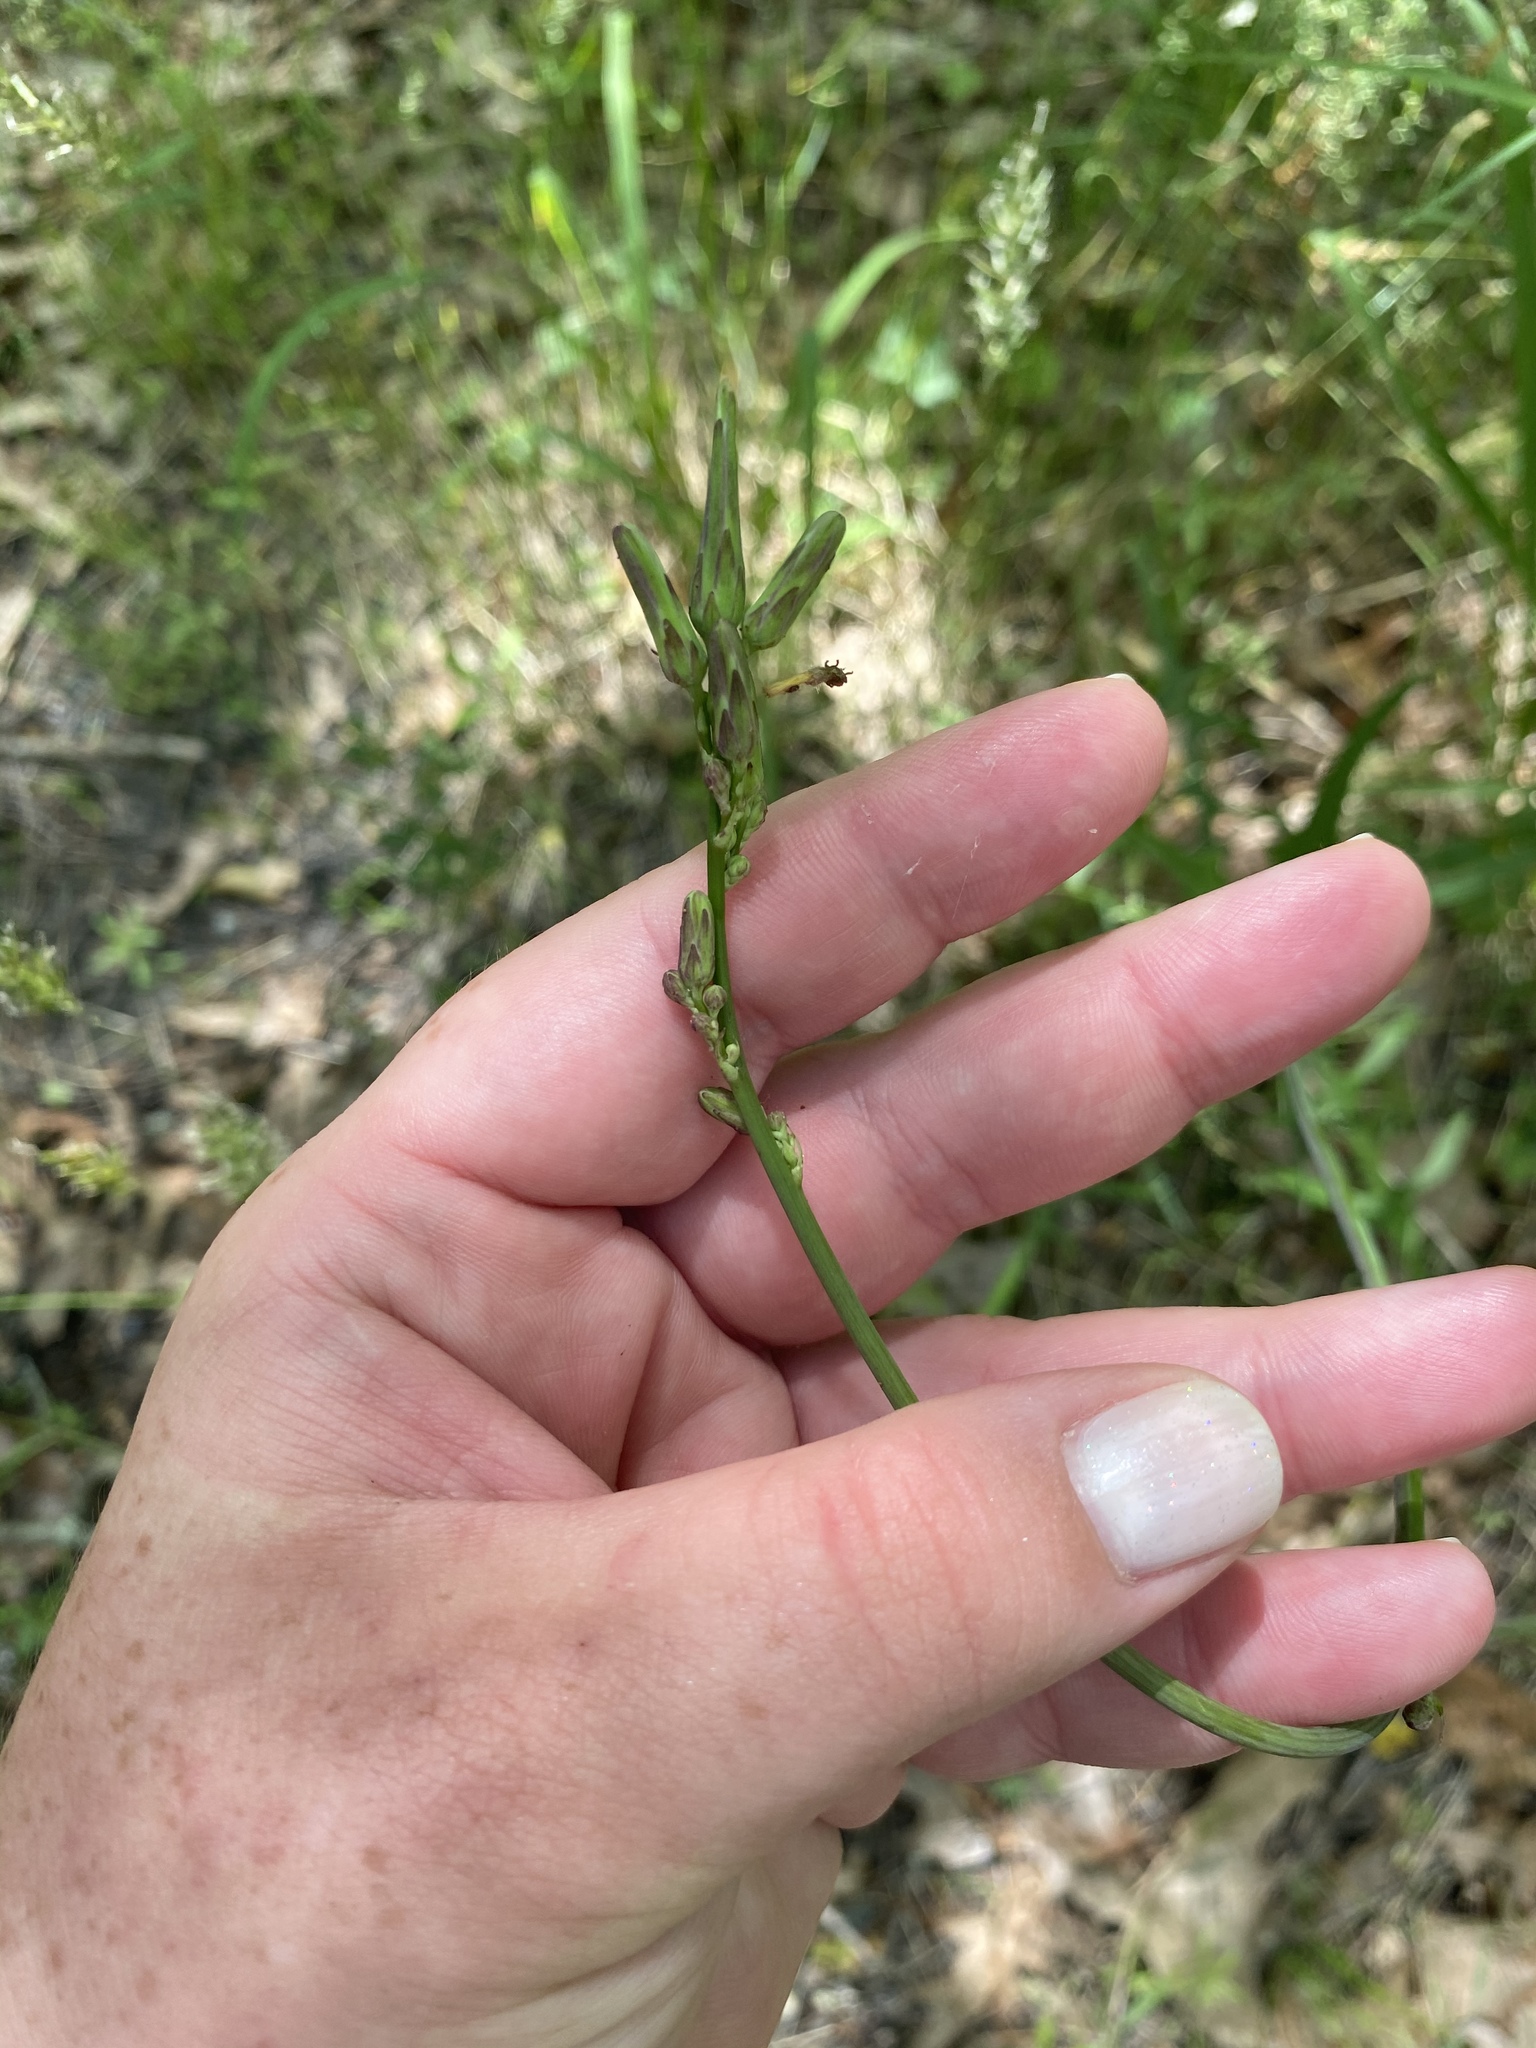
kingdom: Plantae
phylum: Tracheophyta
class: Magnoliopsida
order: Asterales
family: Asteraceae
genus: Lactuca
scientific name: Lactuca canadensis
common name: Canada lettuce
